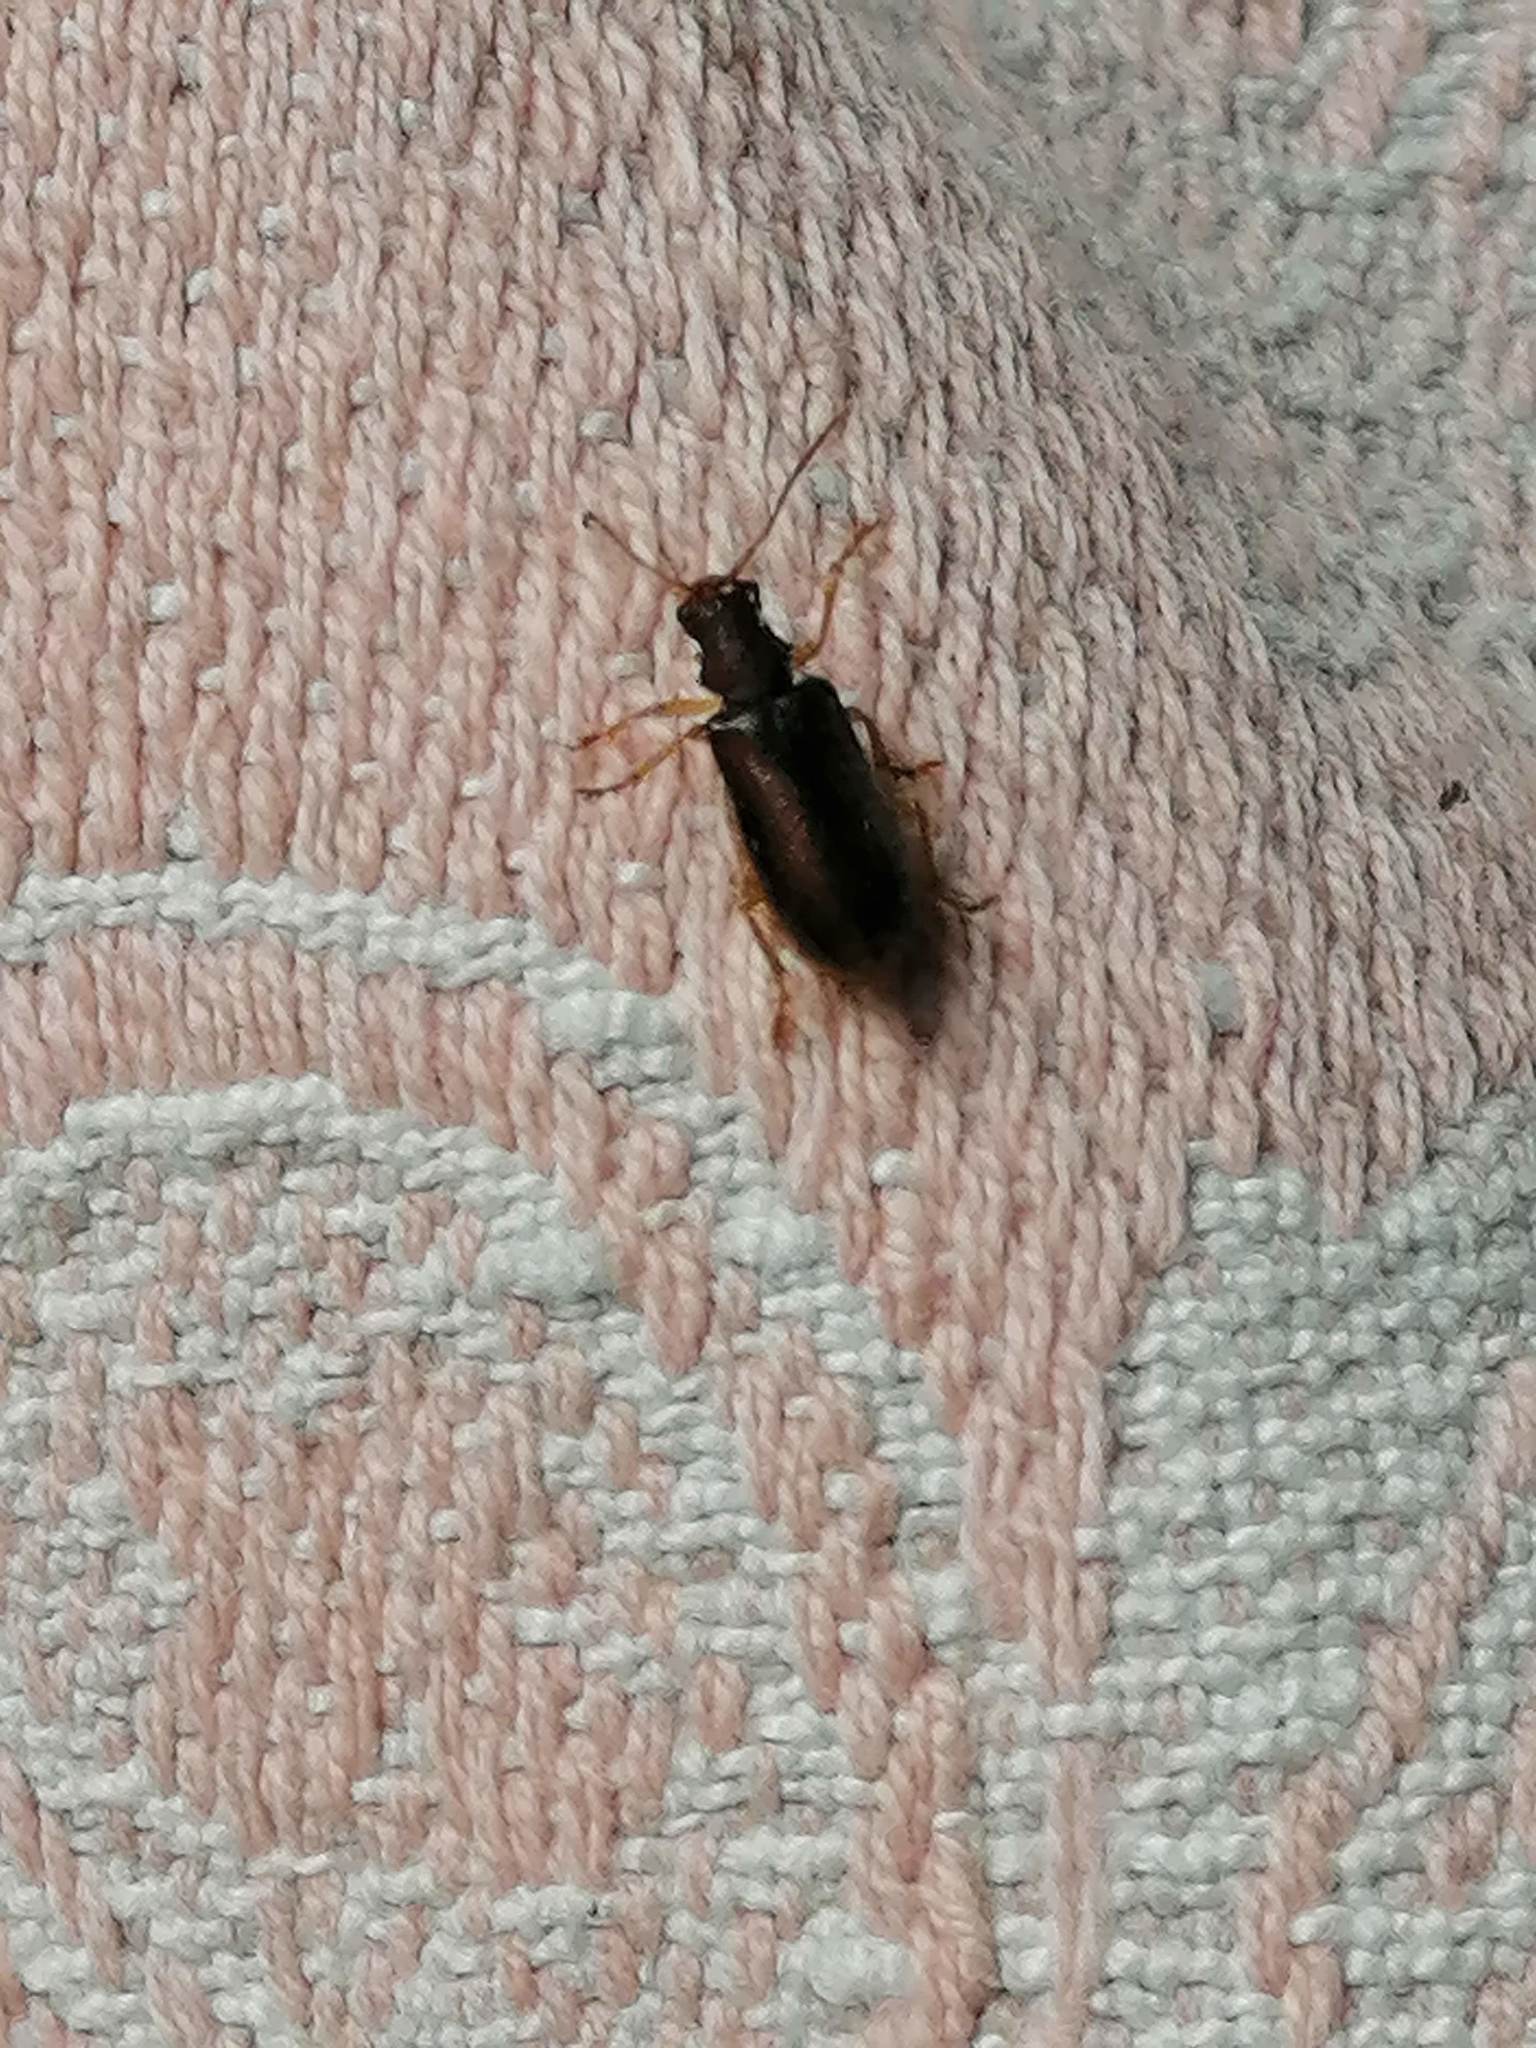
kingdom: Animalia
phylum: Arthropoda
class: Insecta
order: Coleoptera
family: Chrysomelidae
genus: Syneta
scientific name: Syneta betulae
